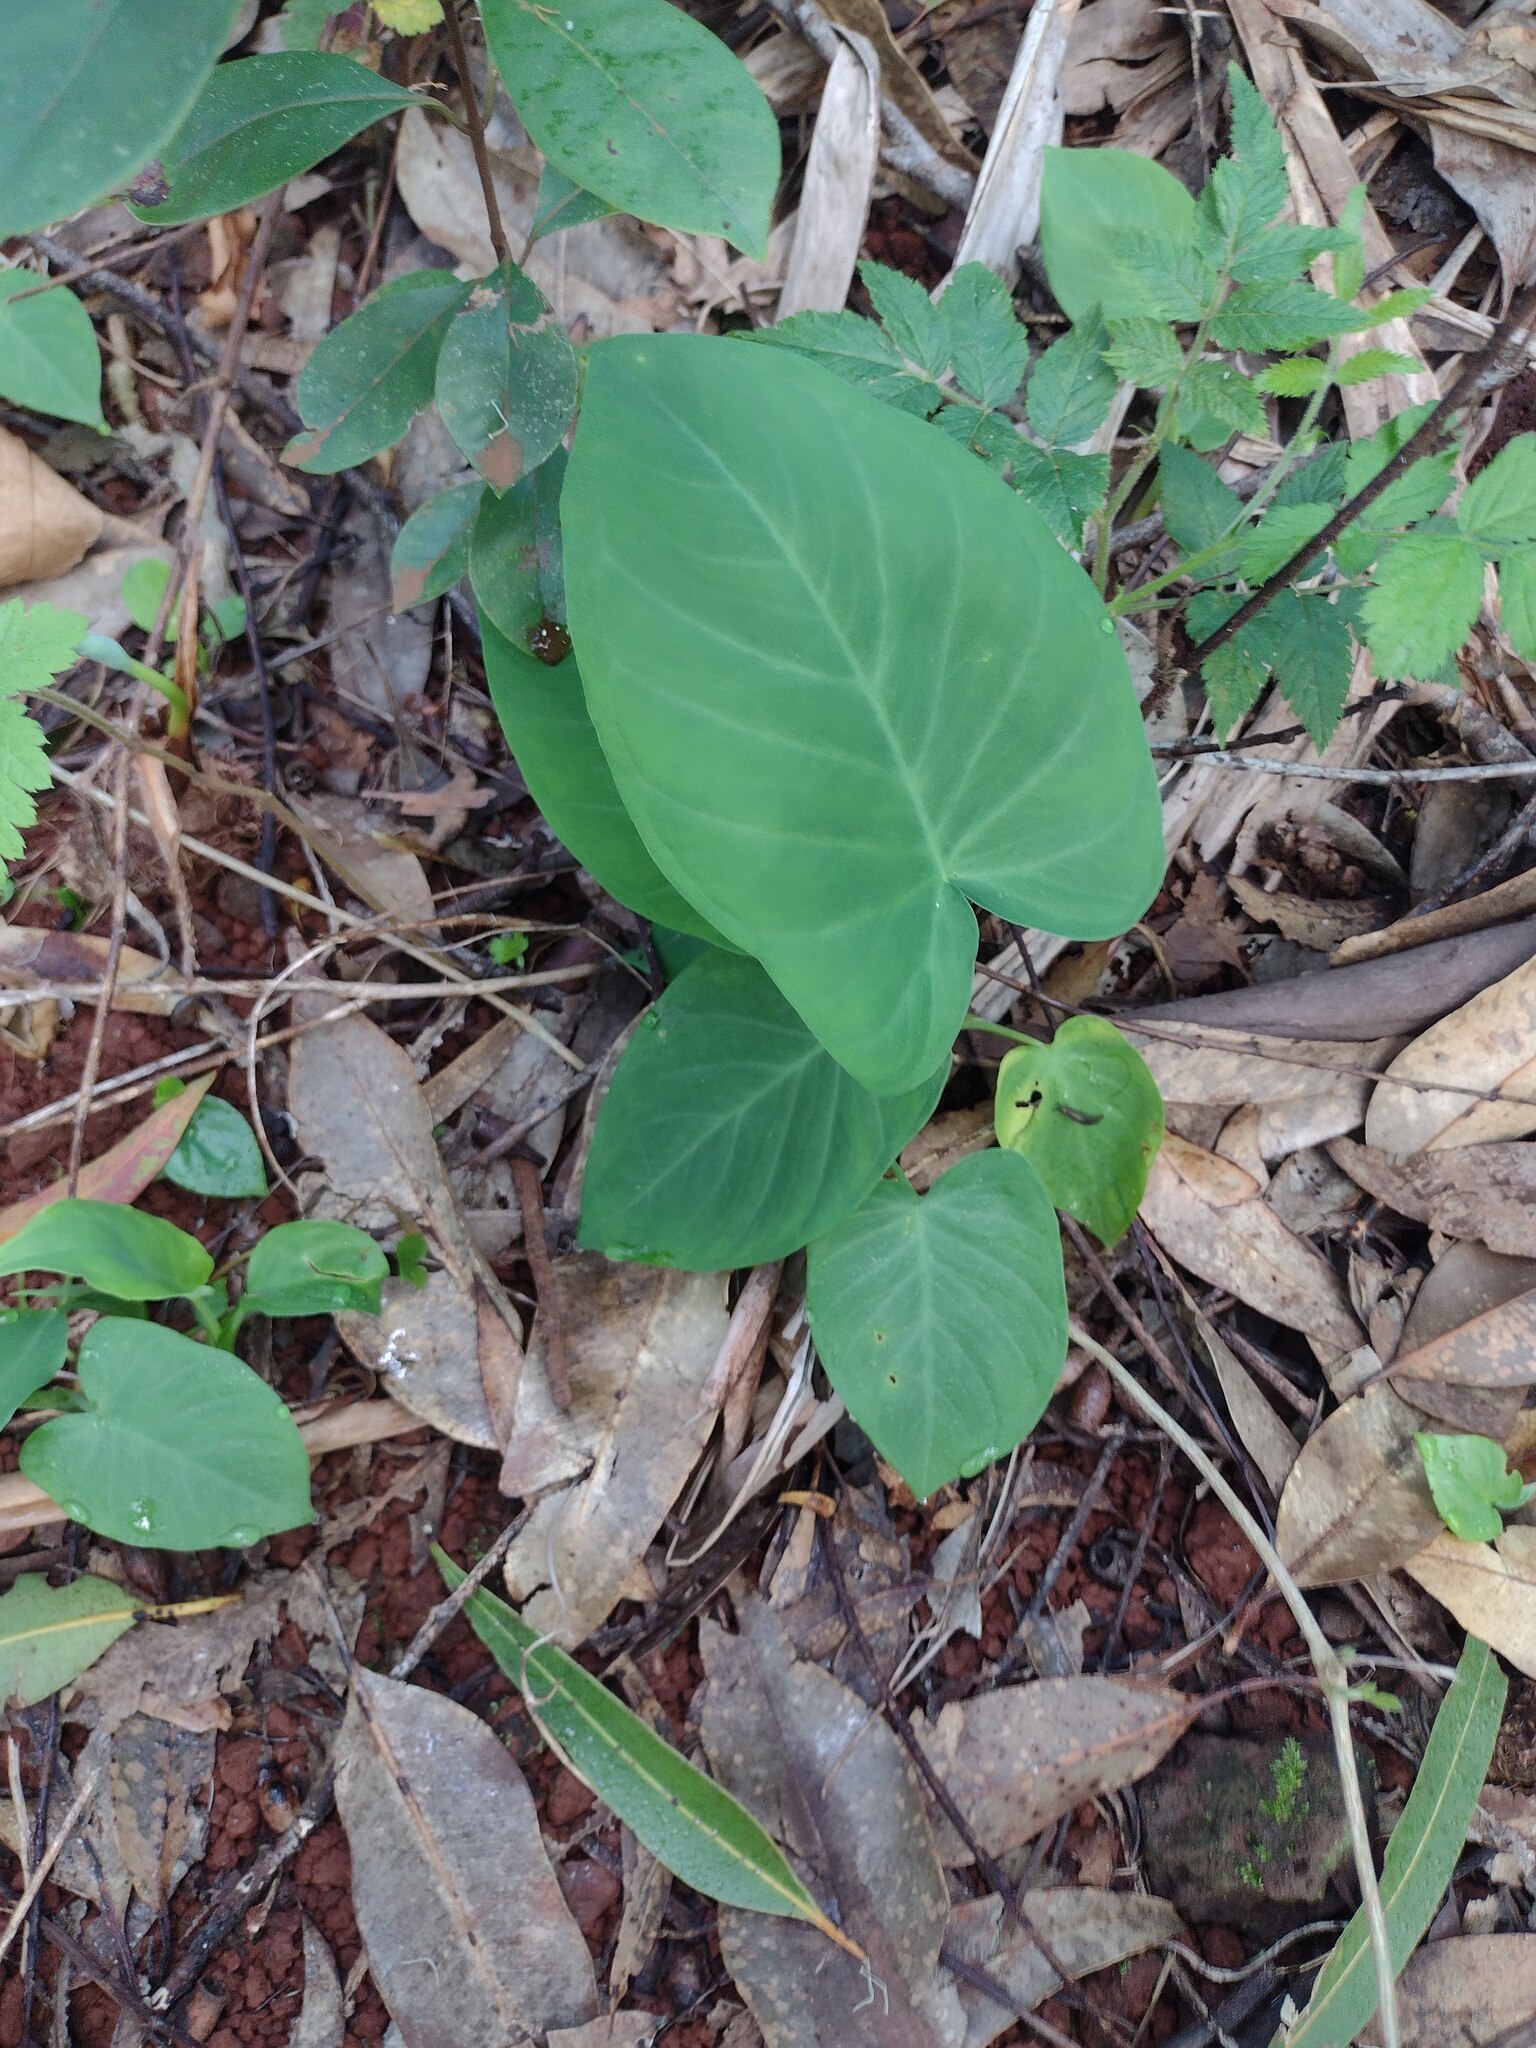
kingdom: Plantae
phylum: Tracheophyta
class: Liliopsida
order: Alismatales
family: Araceae
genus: Colocasia
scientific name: Colocasia esculenta
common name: Taro
